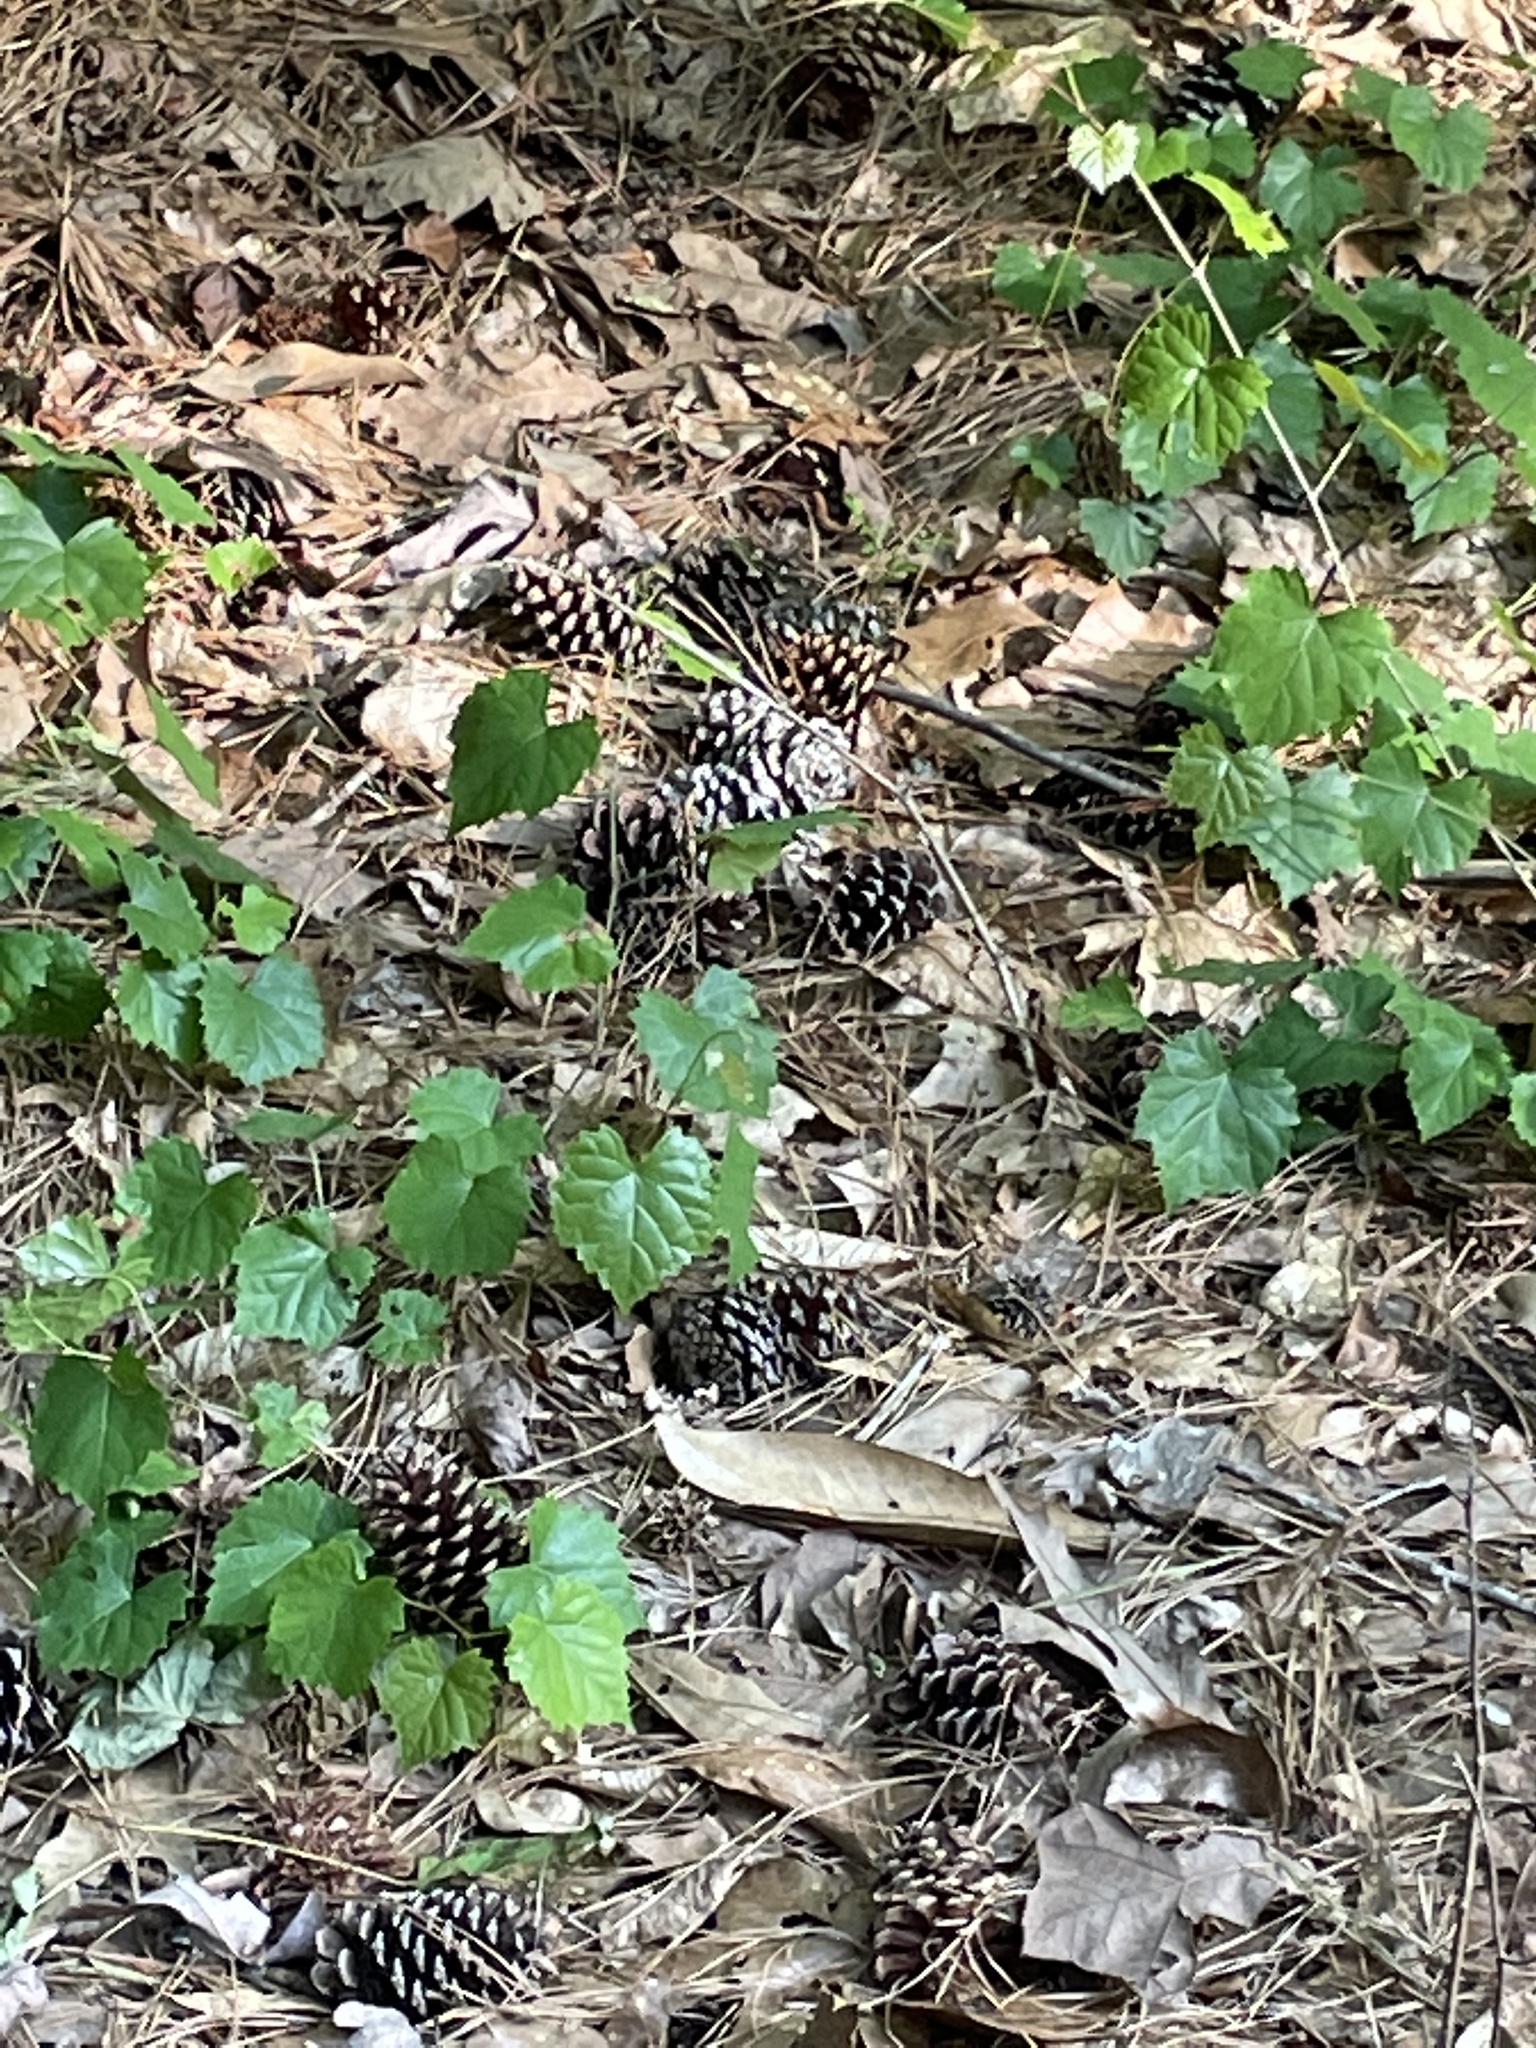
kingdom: Plantae
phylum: Tracheophyta
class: Magnoliopsida
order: Vitales
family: Vitaceae
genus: Vitis
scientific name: Vitis rotundifolia
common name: Muscadine grape
